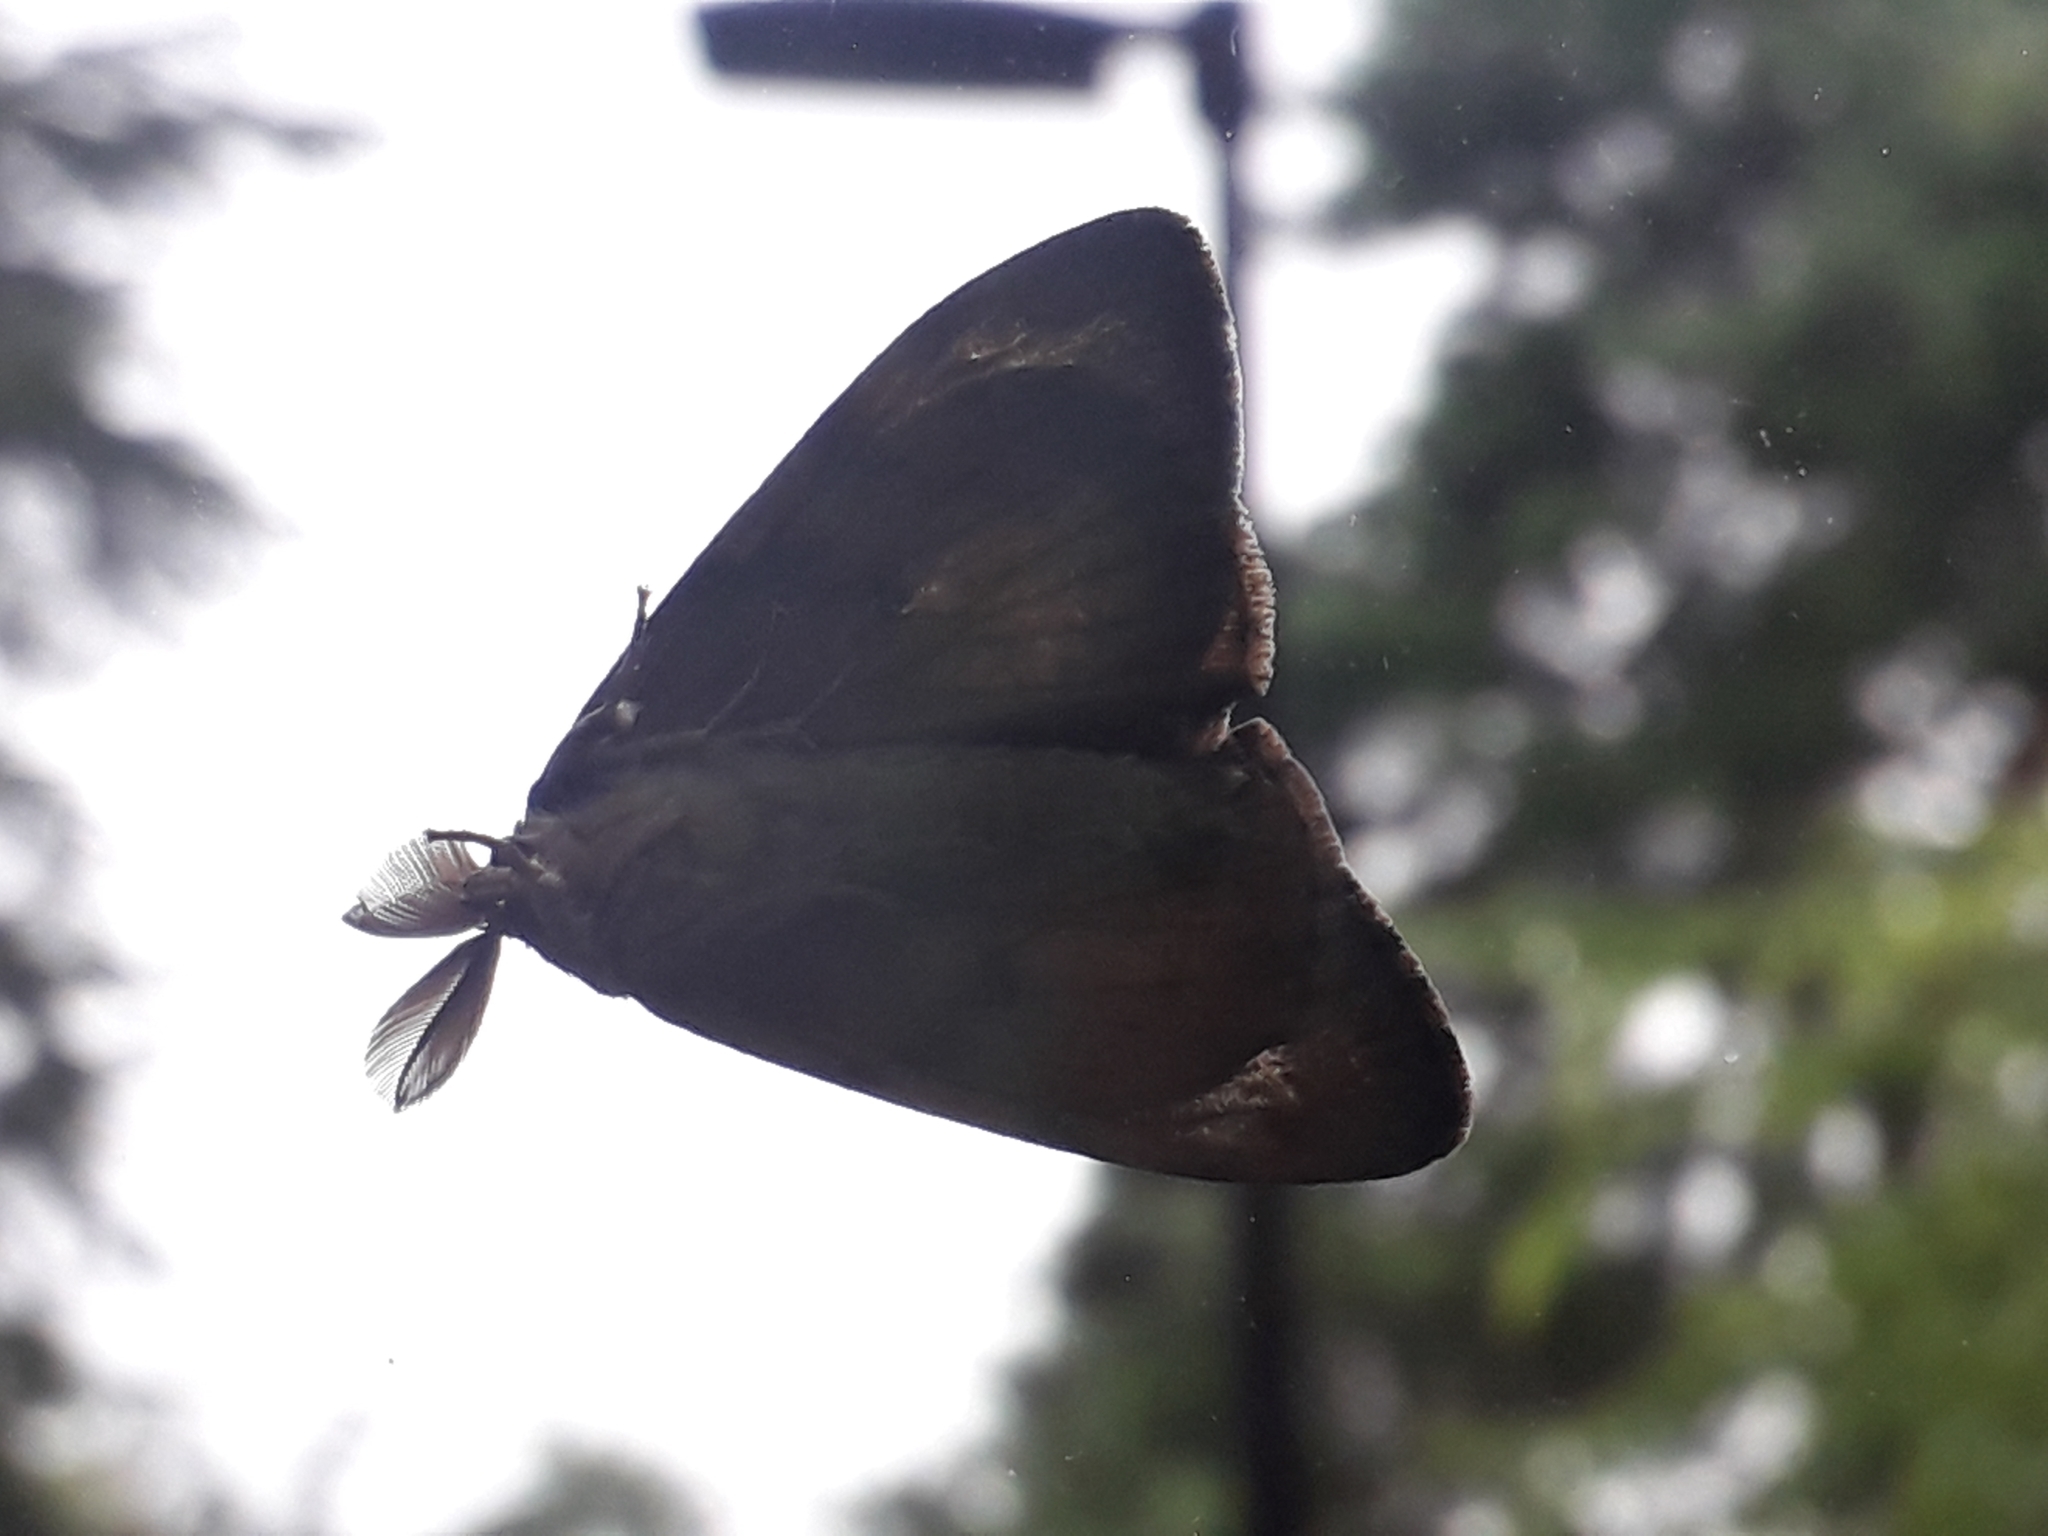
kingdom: Animalia
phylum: Arthropoda
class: Insecta
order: Lepidoptera
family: Erebidae
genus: Lymantria
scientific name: Lymantria dispar
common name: Gypsy moth
